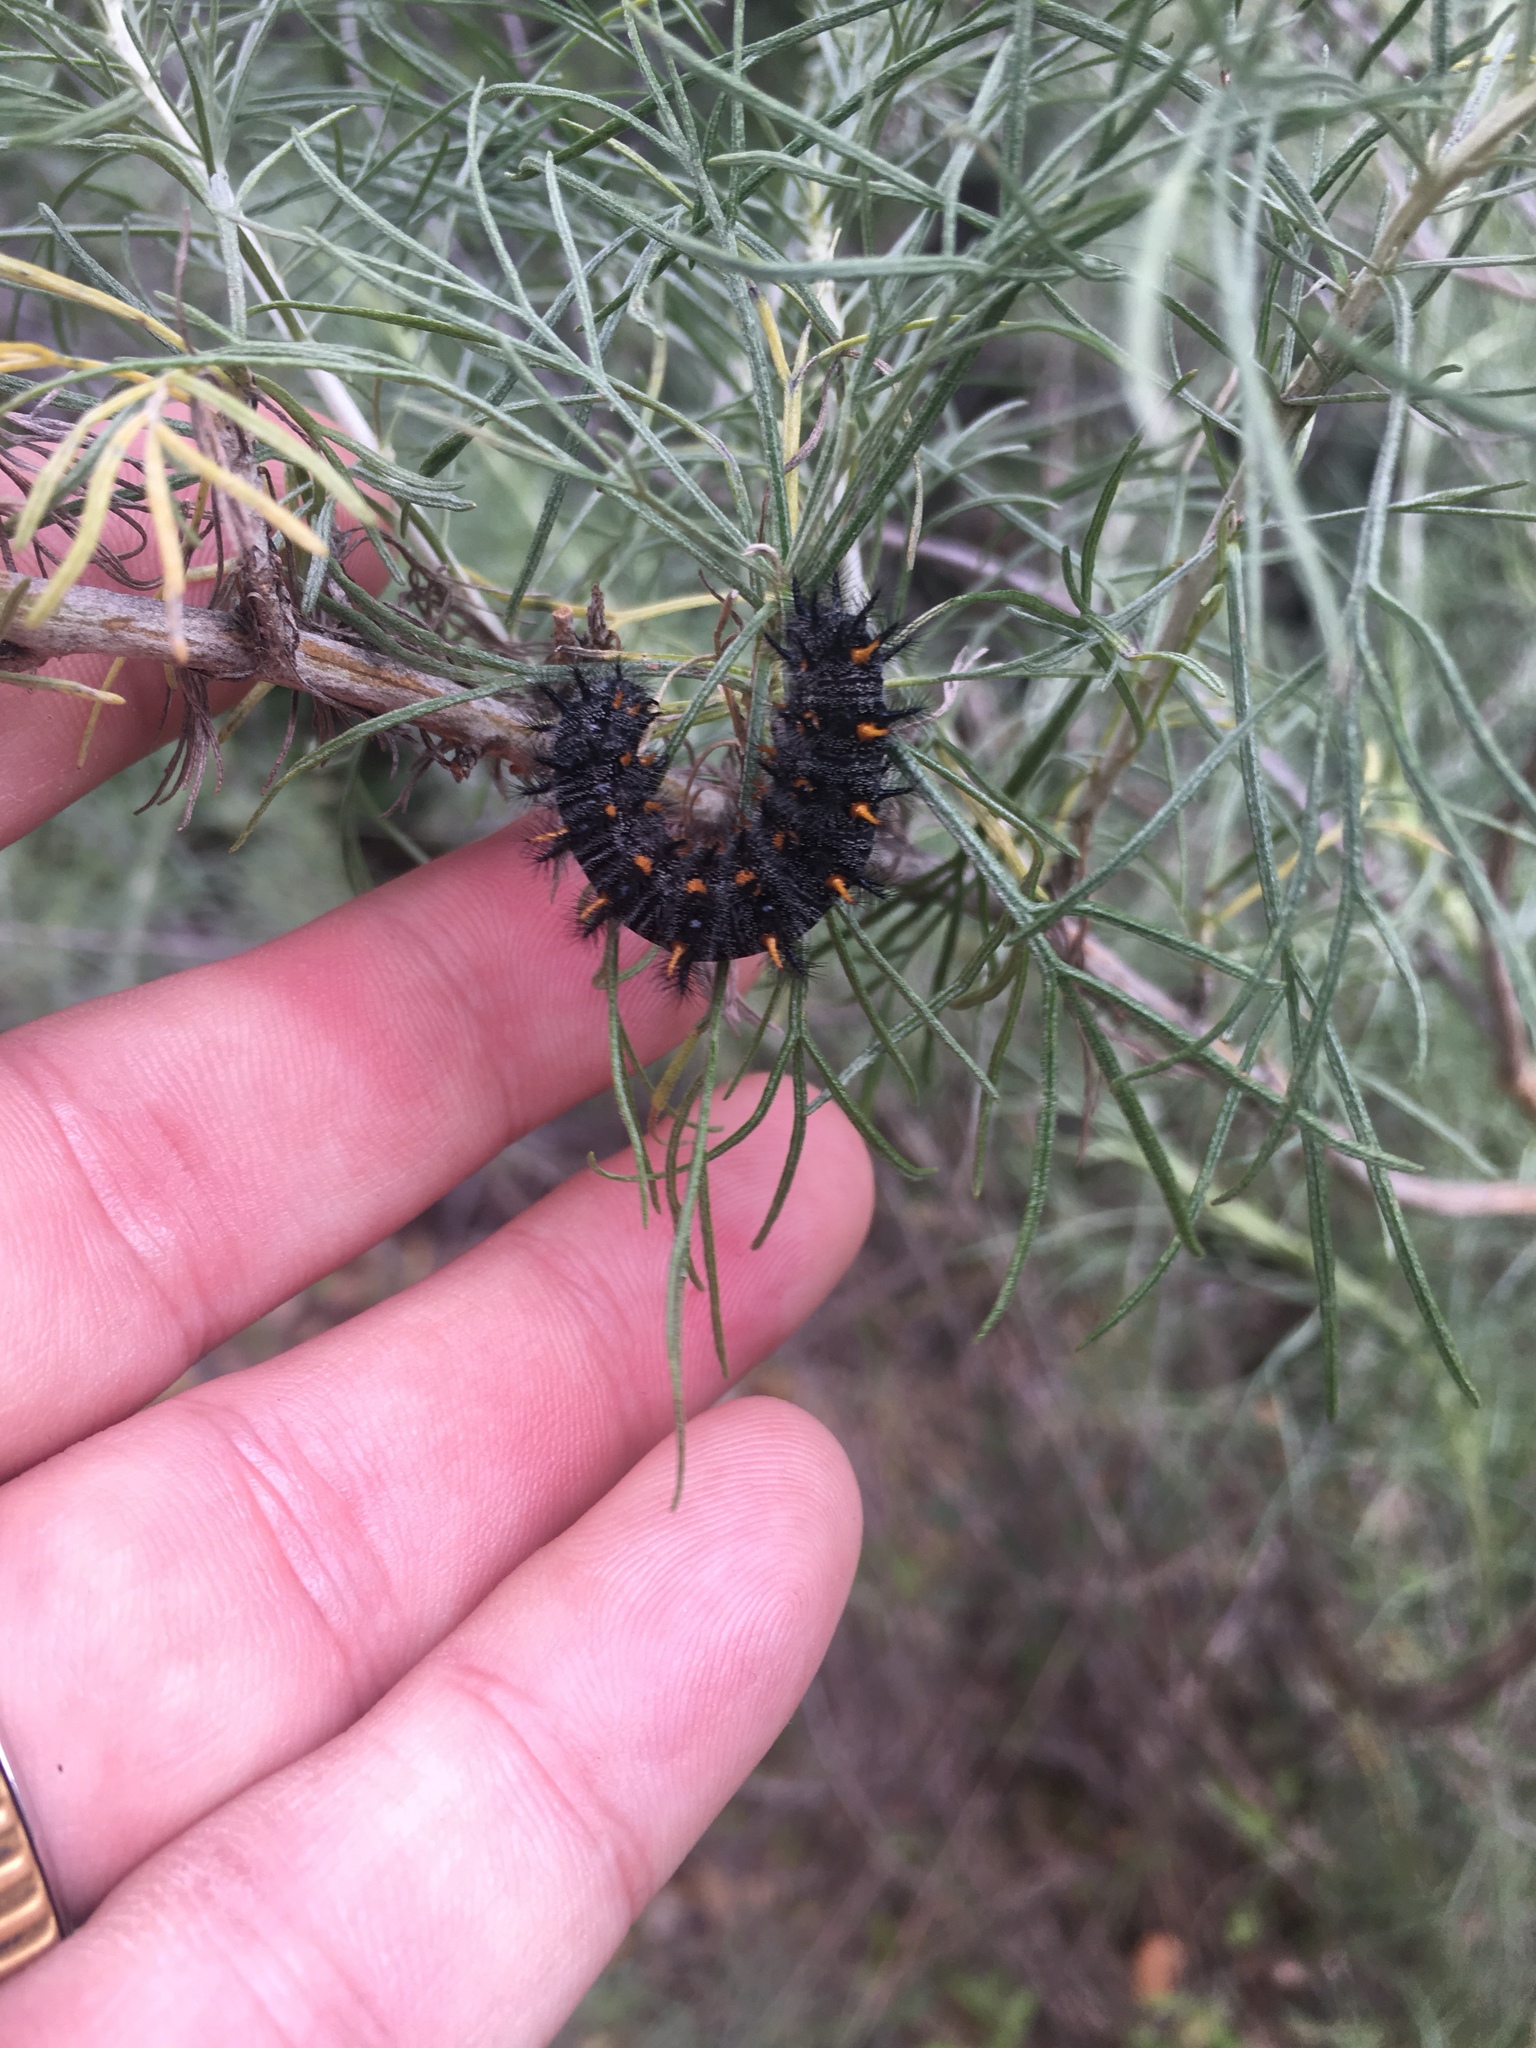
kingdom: Animalia
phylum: Arthropoda
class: Insecta
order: Lepidoptera
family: Nymphalidae
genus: Occidryas
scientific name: Occidryas chalcedona
